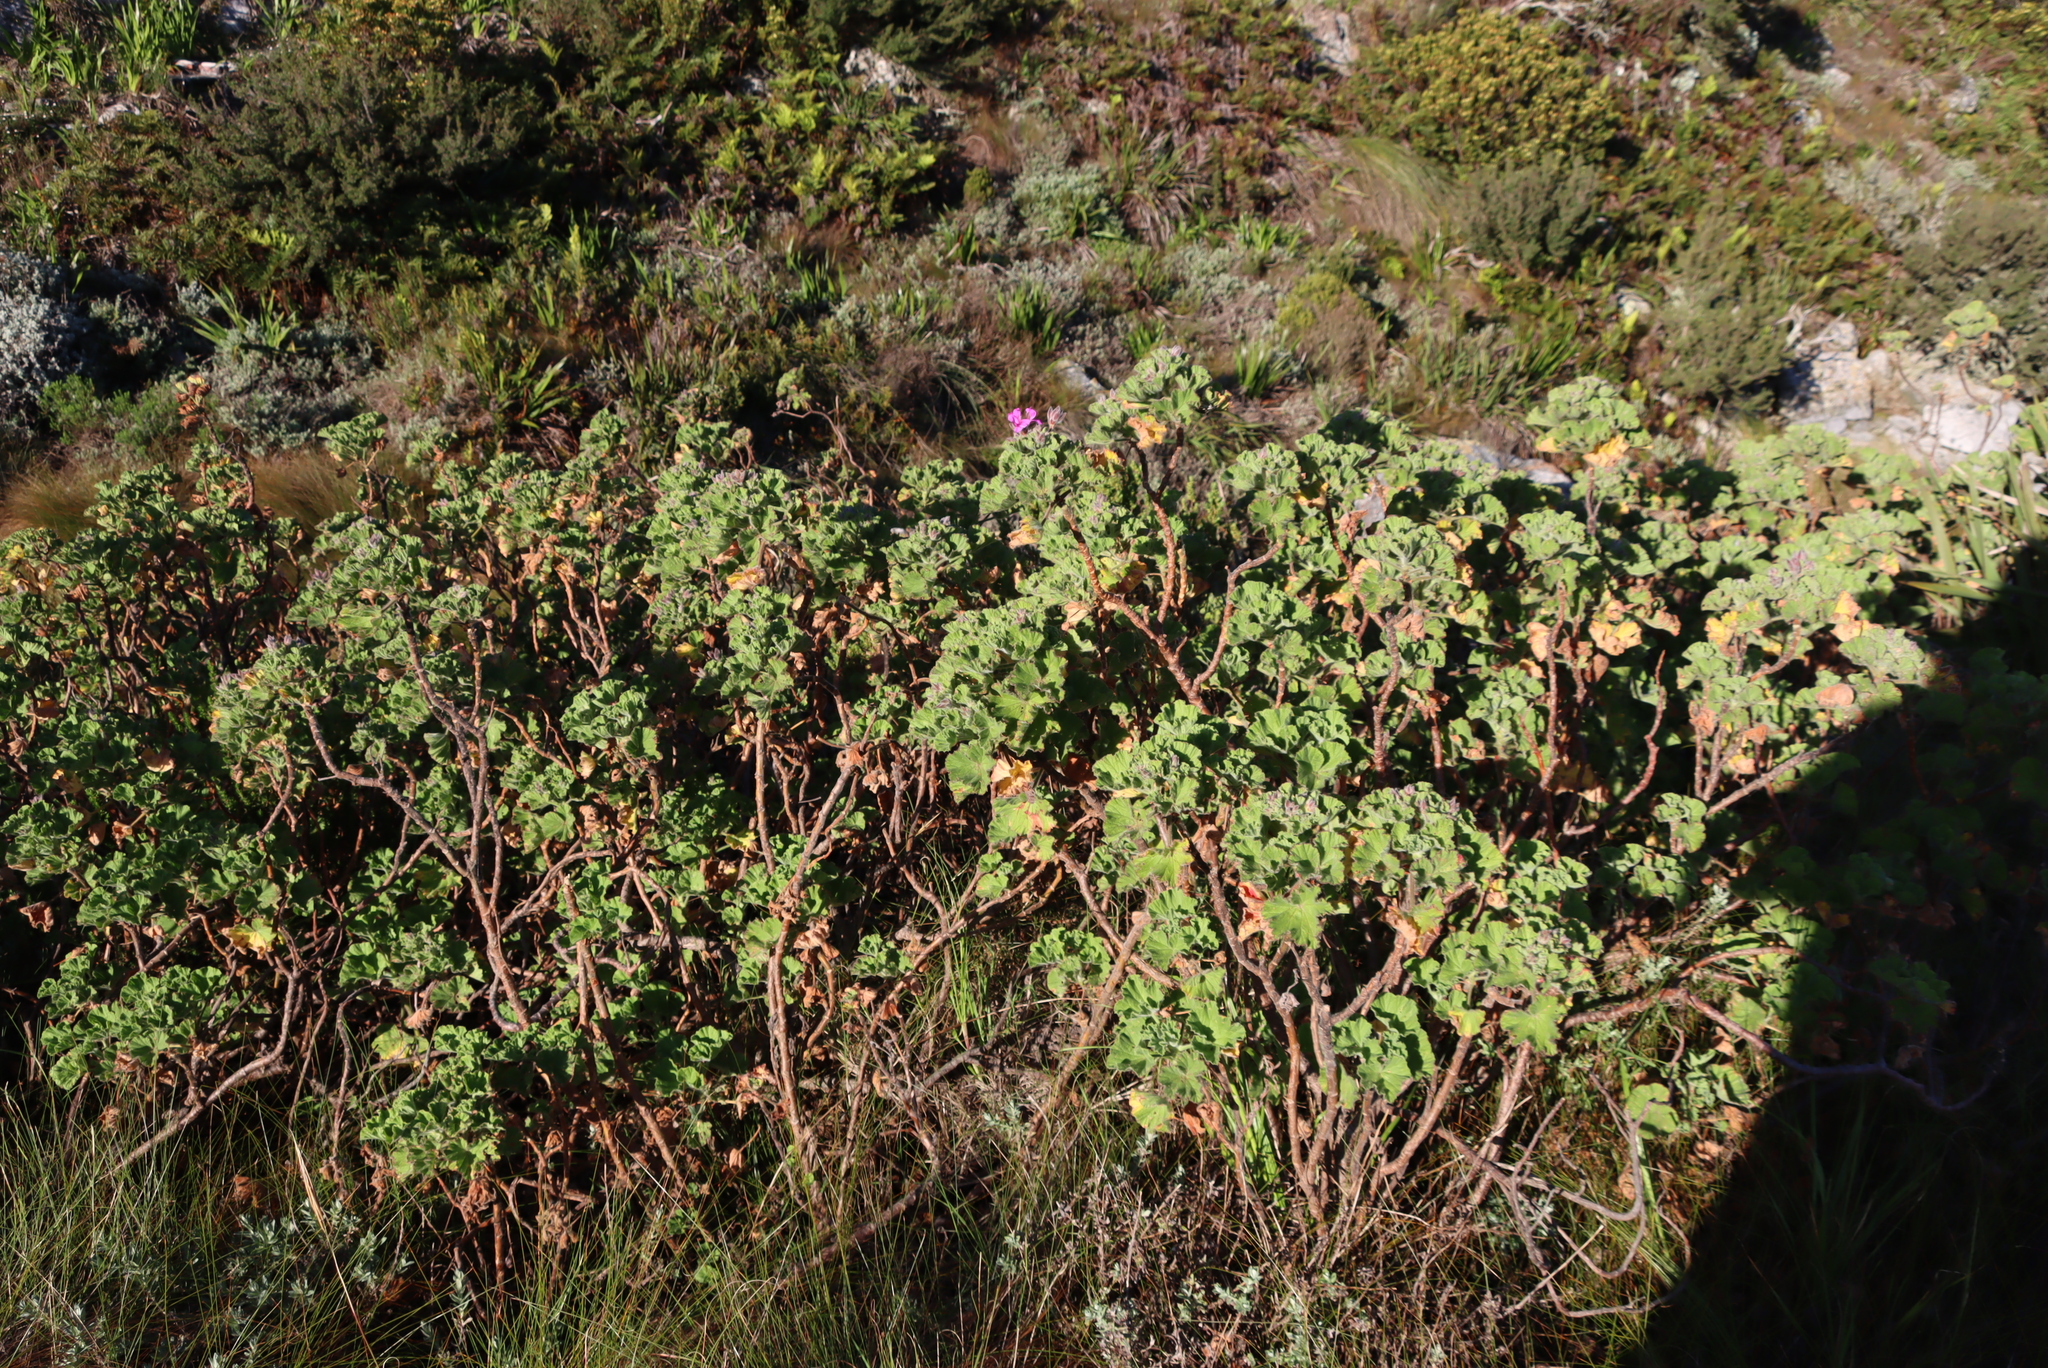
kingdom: Plantae
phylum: Tracheophyta
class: Magnoliopsida
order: Geraniales
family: Geraniaceae
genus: Pelargonium
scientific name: Pelargonium cucullatum
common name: Tree pelargonium
